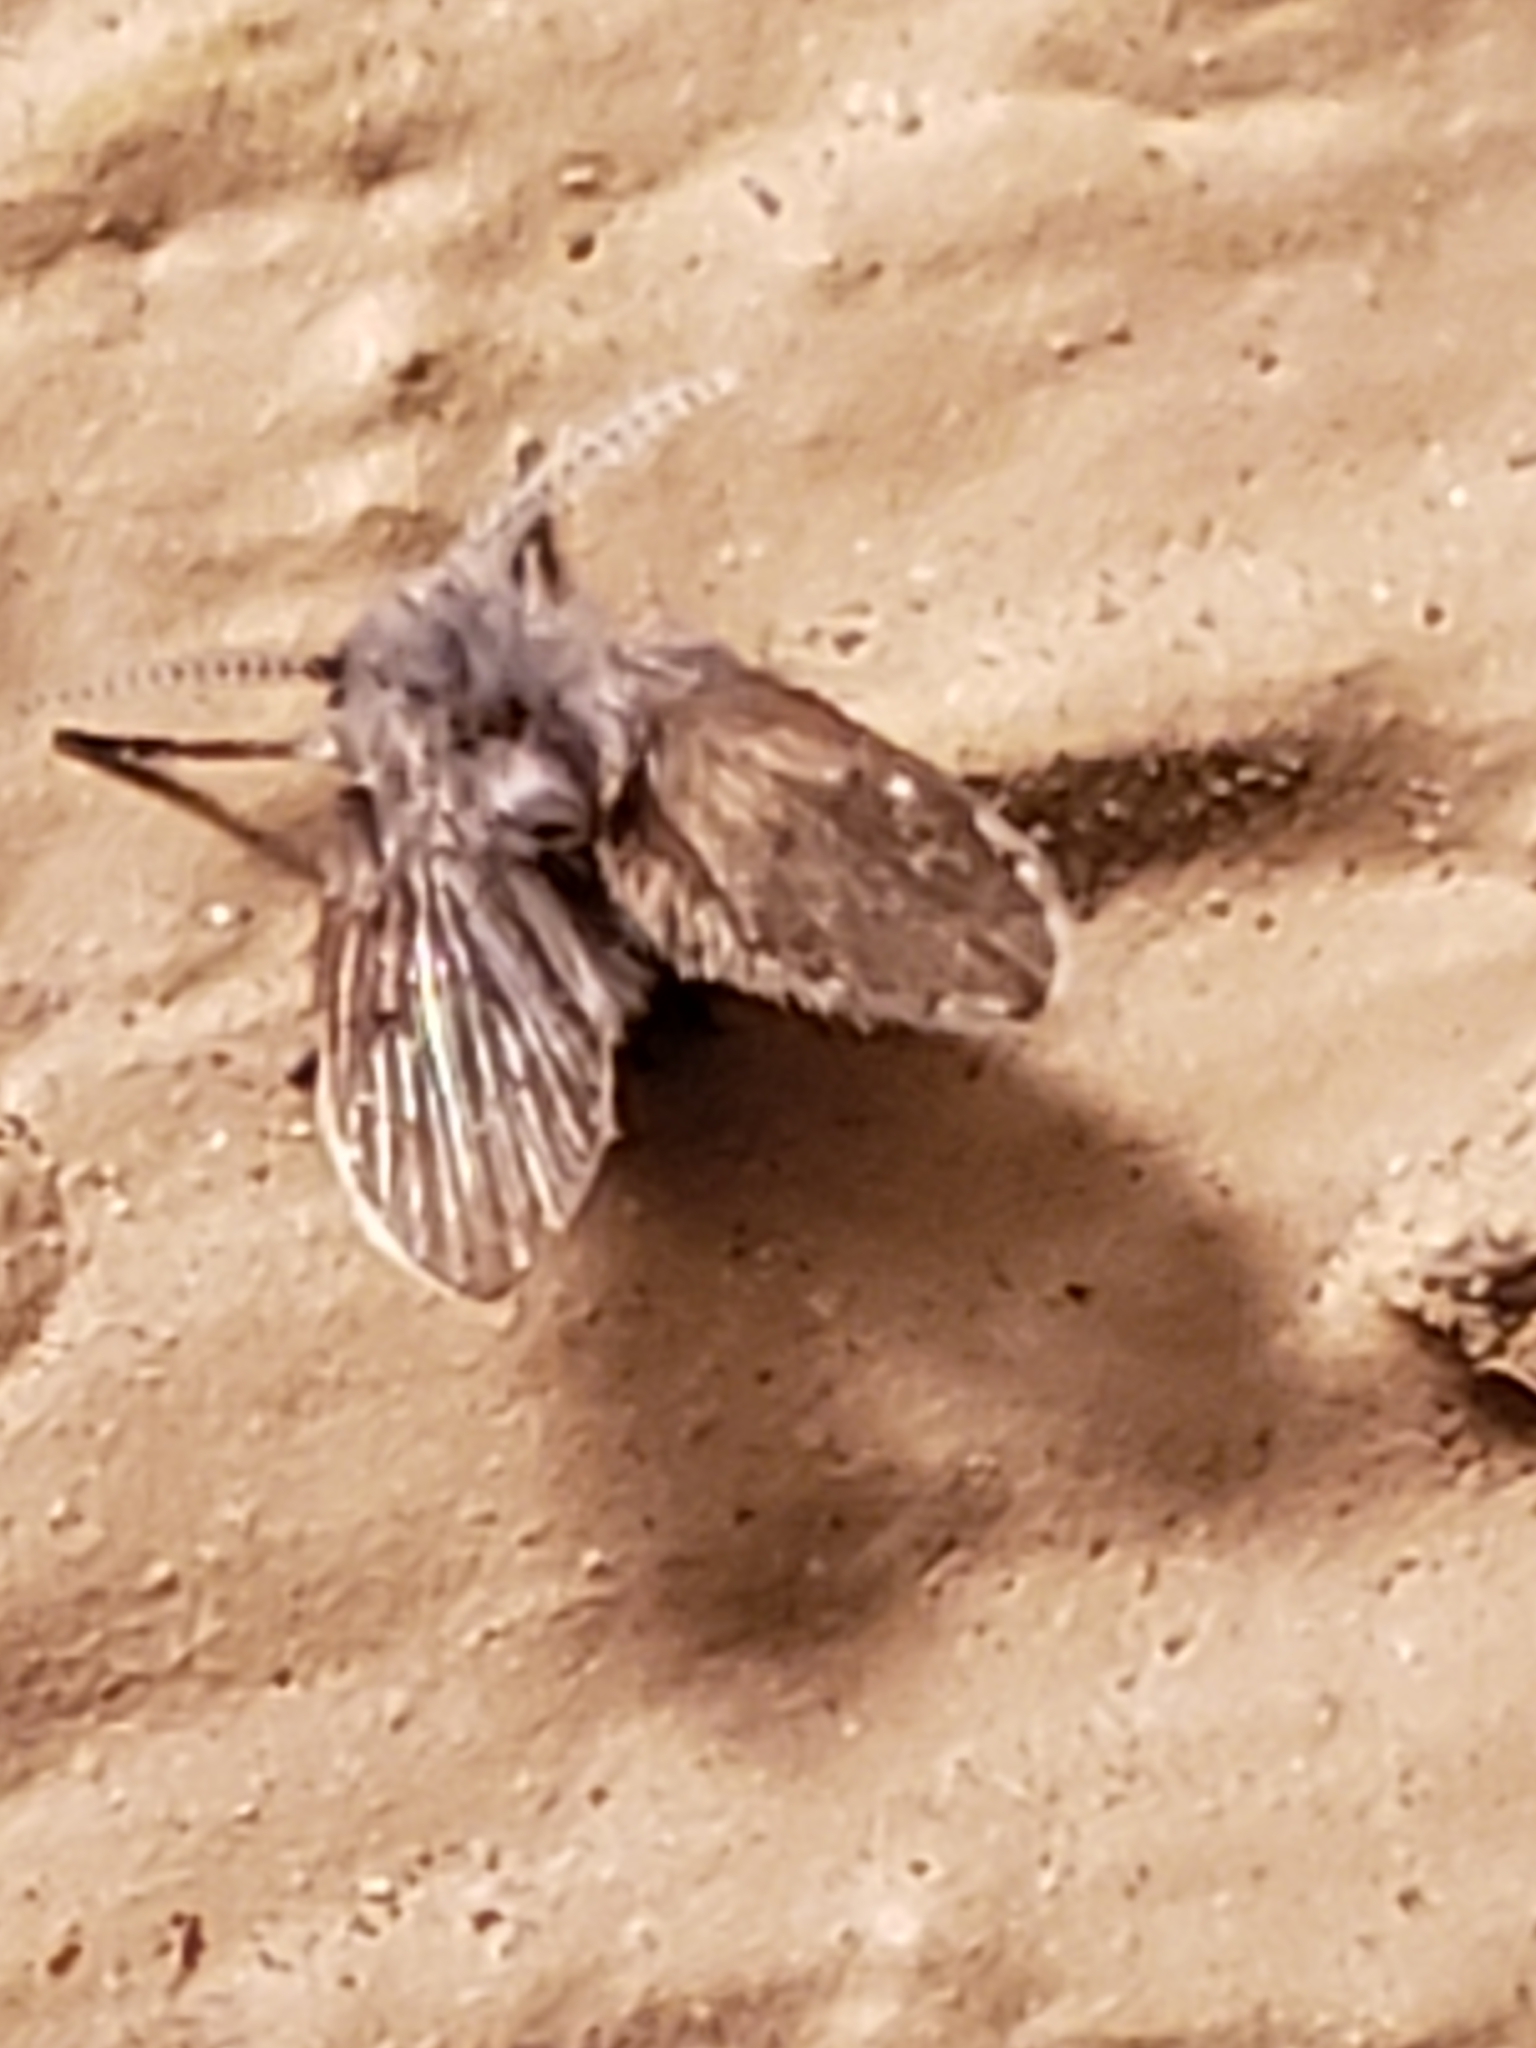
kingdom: Animalia
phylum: Arthropoda
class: Insecta
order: Diptera
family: Psychodidae
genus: Clogmia
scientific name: Clogmia albipunctatus
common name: White-spotted moth fly
